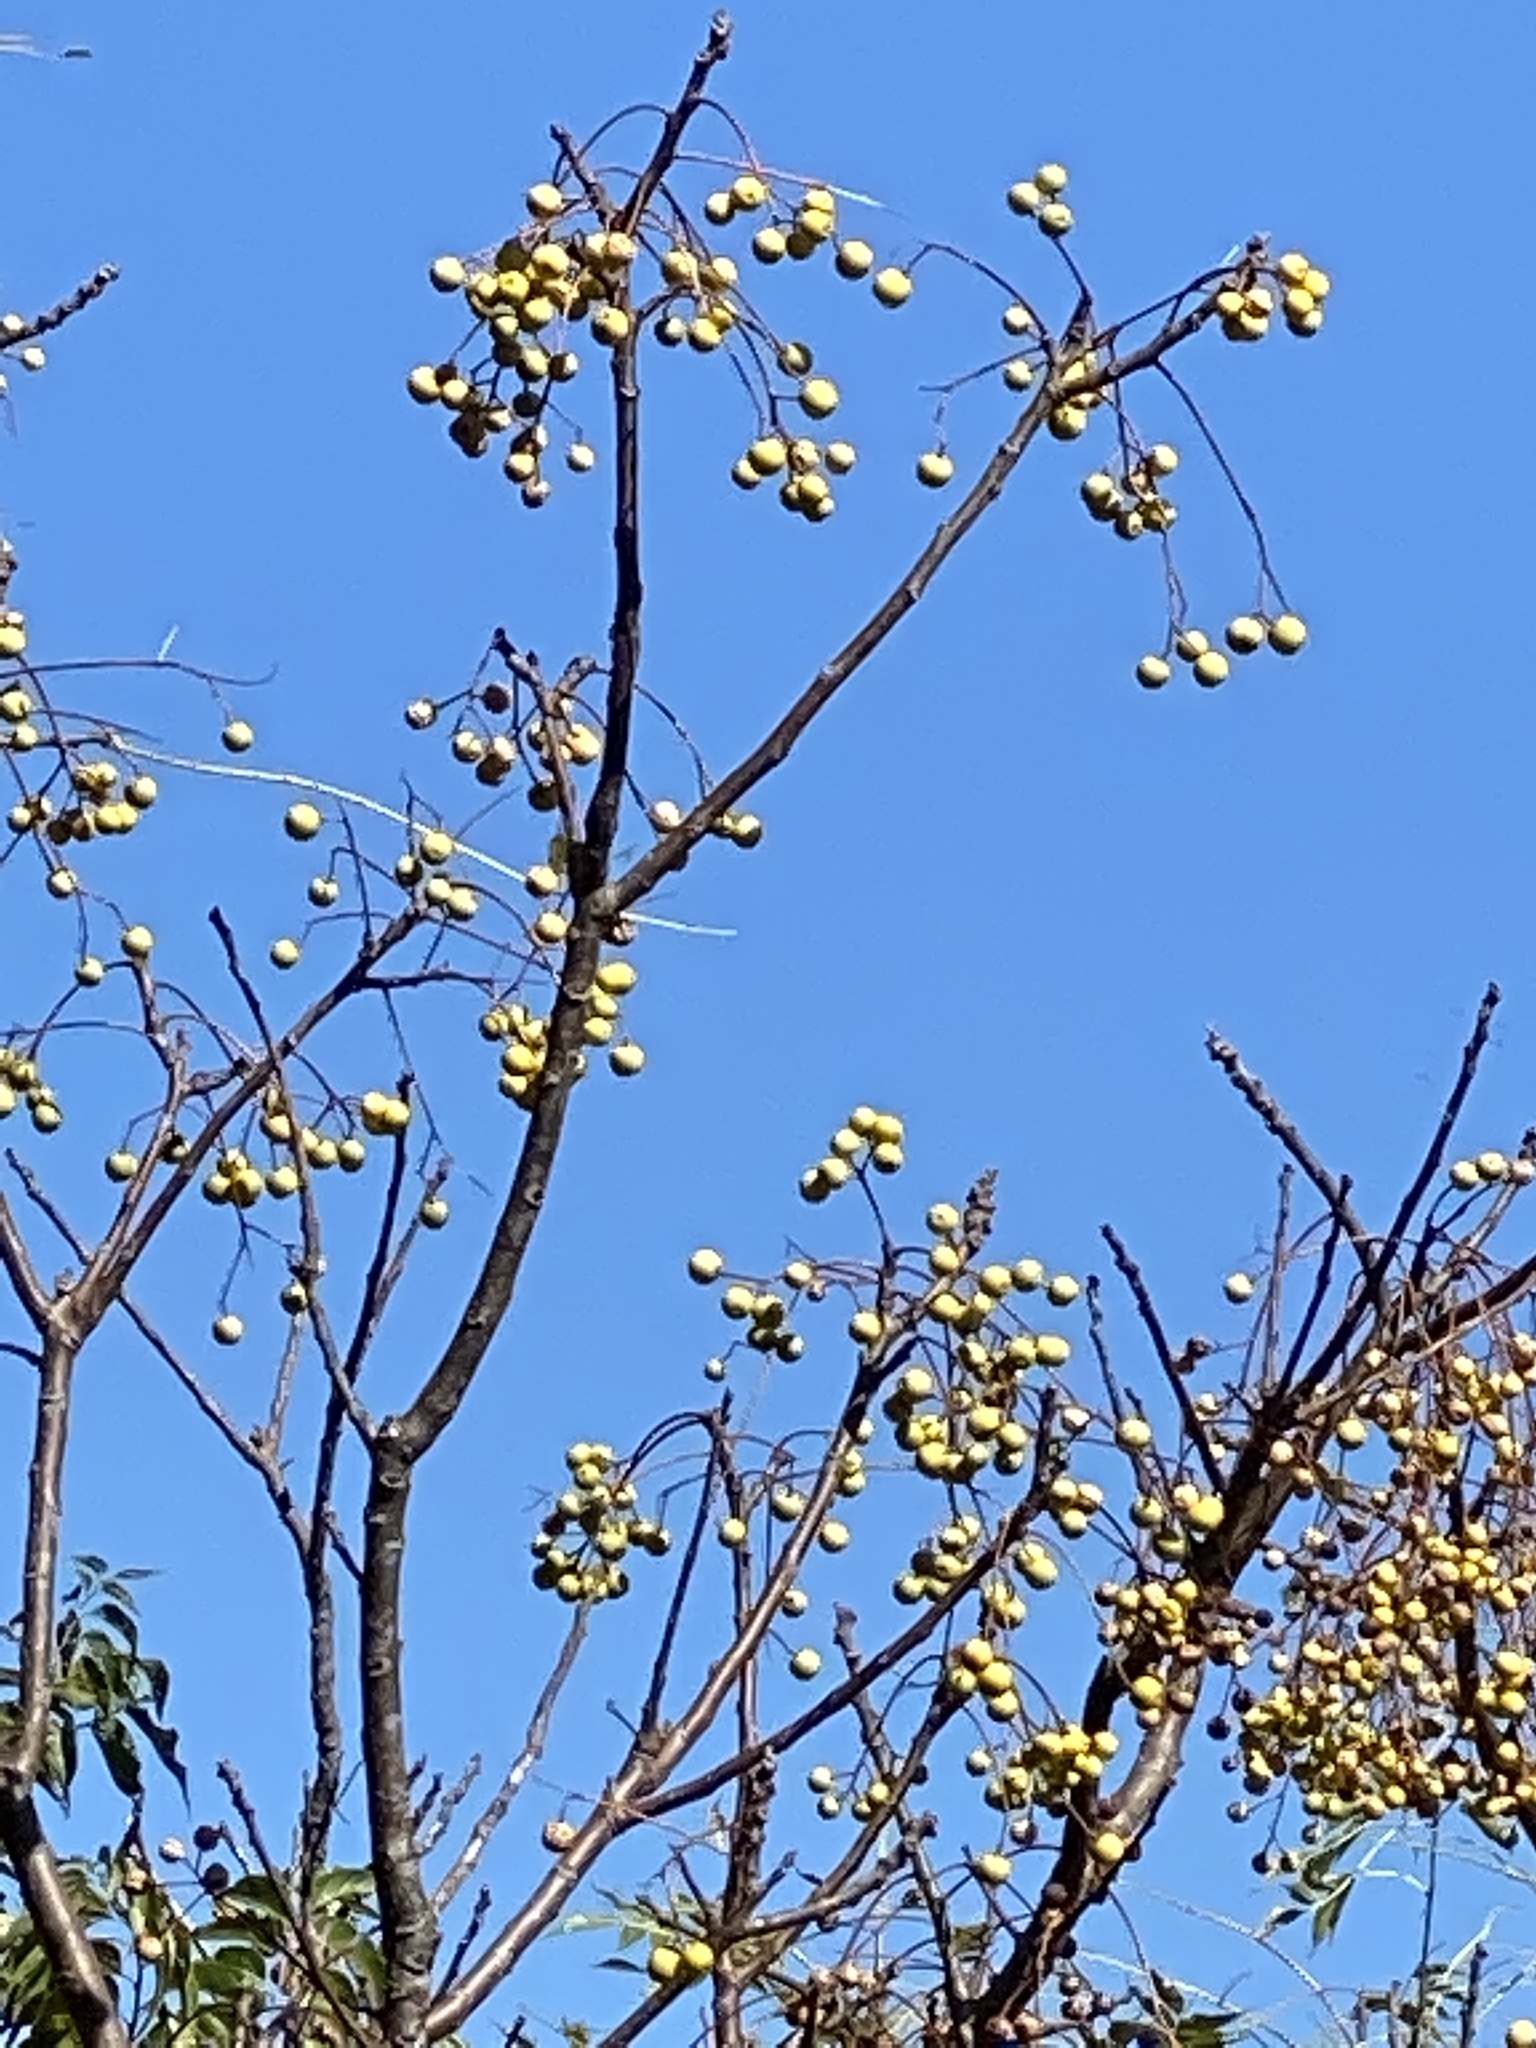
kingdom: Plantae
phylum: Tracheophyta
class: Magnoliopsida
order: Sapindales
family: Meliaceae
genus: Melia
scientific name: Melia azedarach
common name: Chinaberrytree
